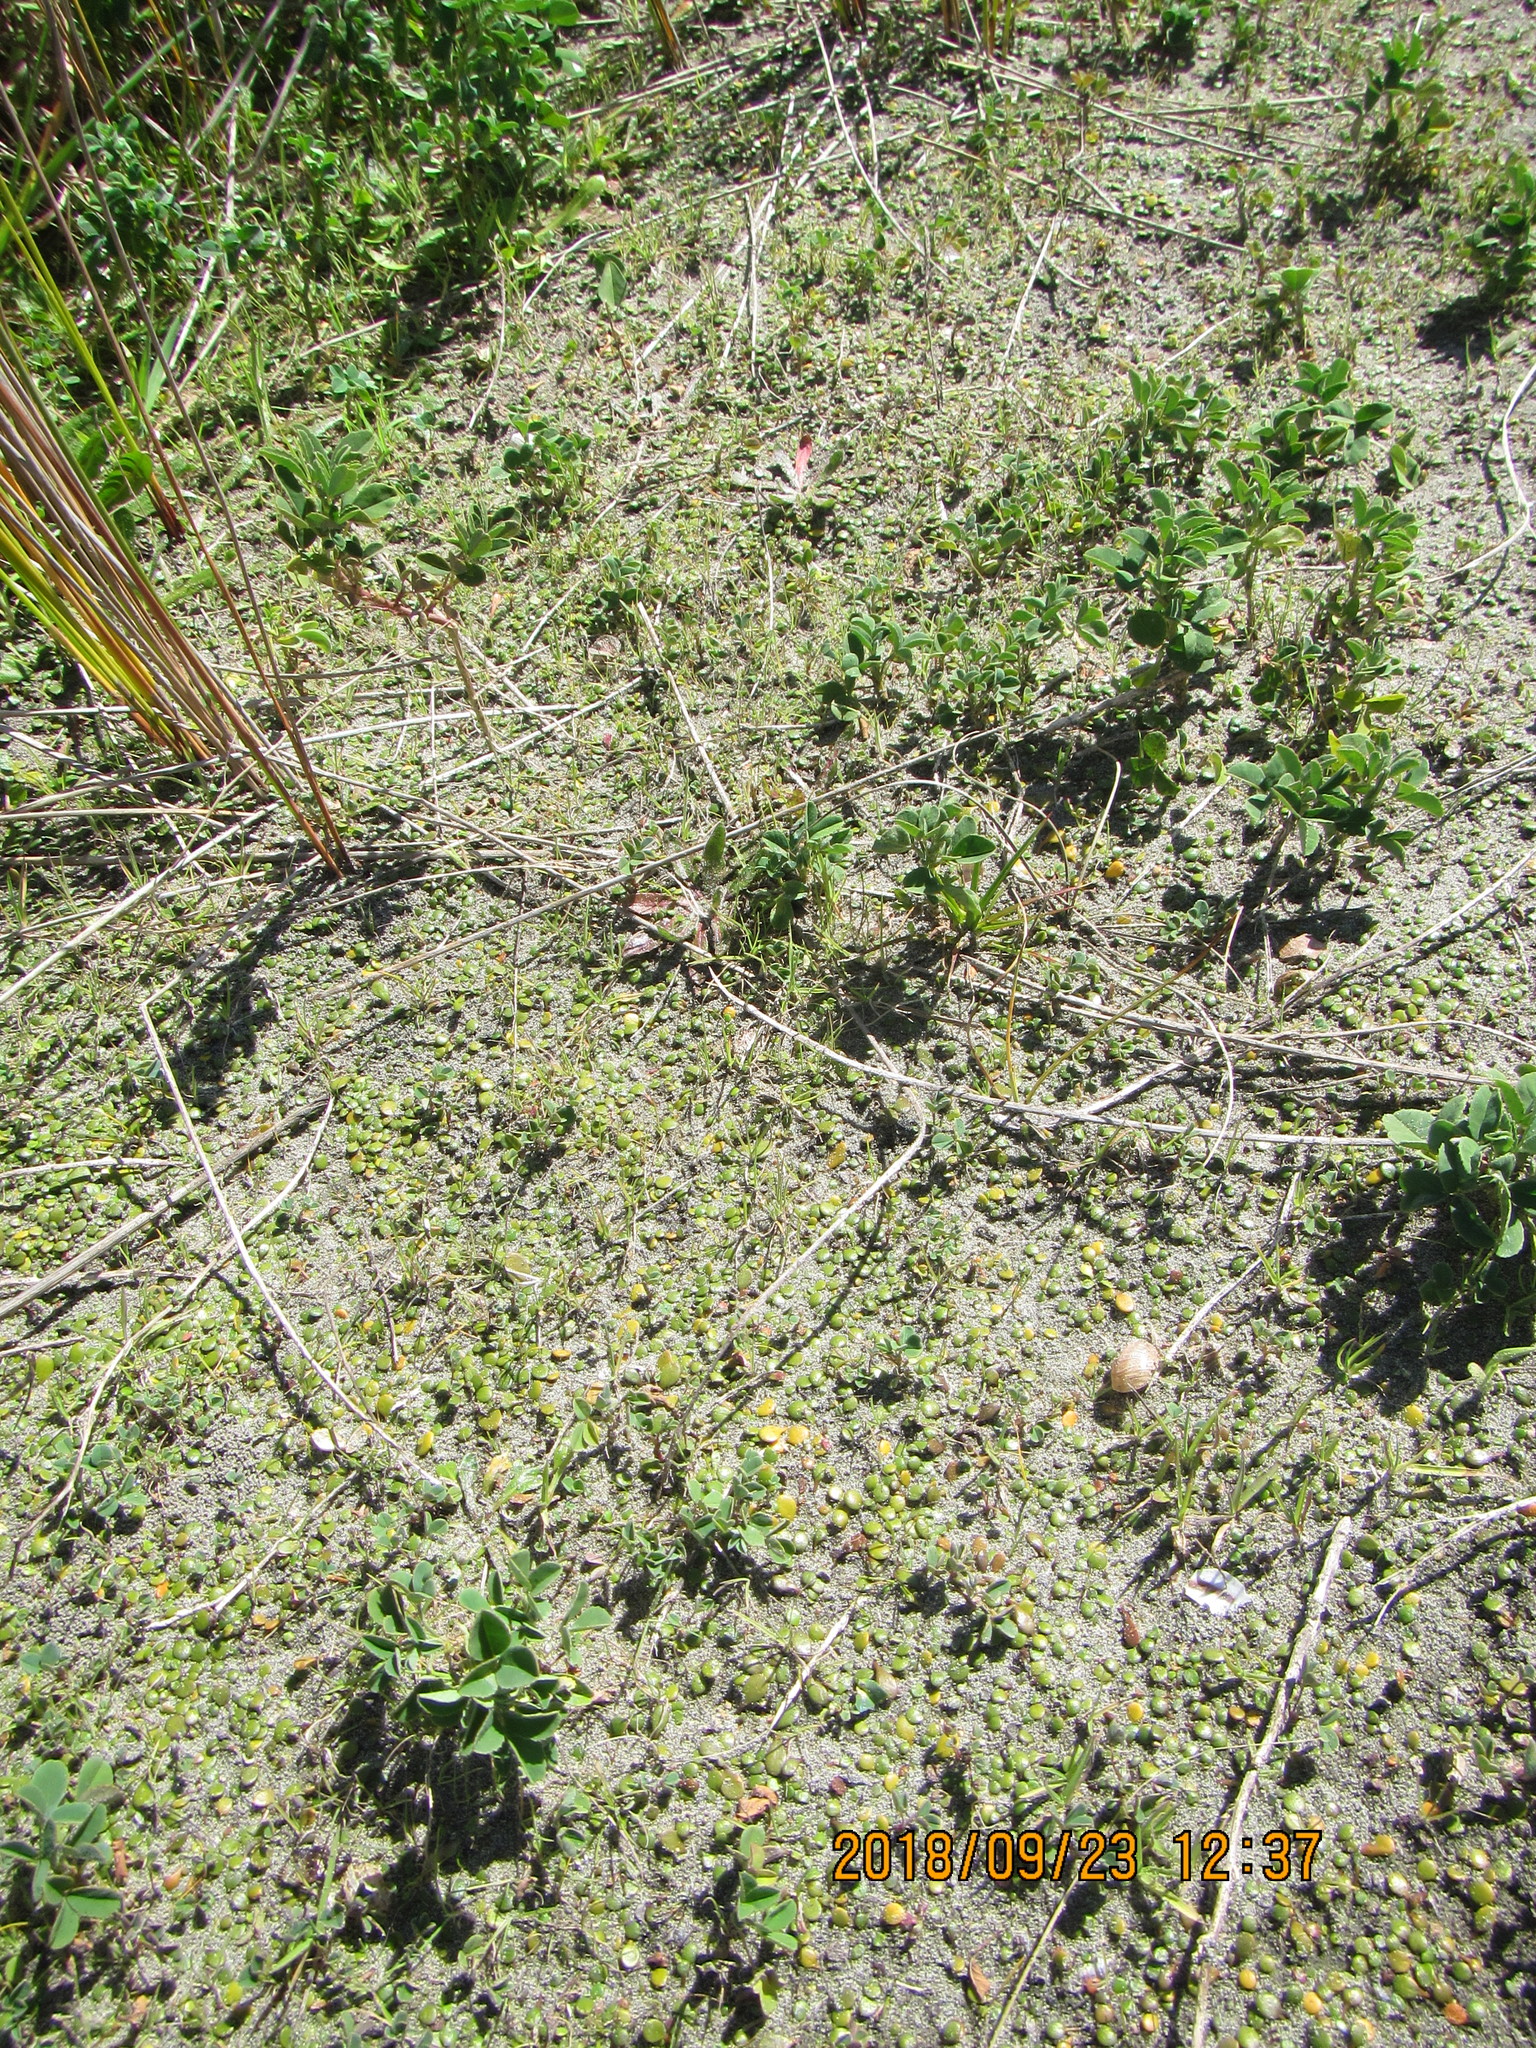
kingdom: Plantae
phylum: Tracheophyta
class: Magnoliopsida
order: Asterales
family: Goodeniaceae
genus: Goodenia
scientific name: Goodenia heenanii
